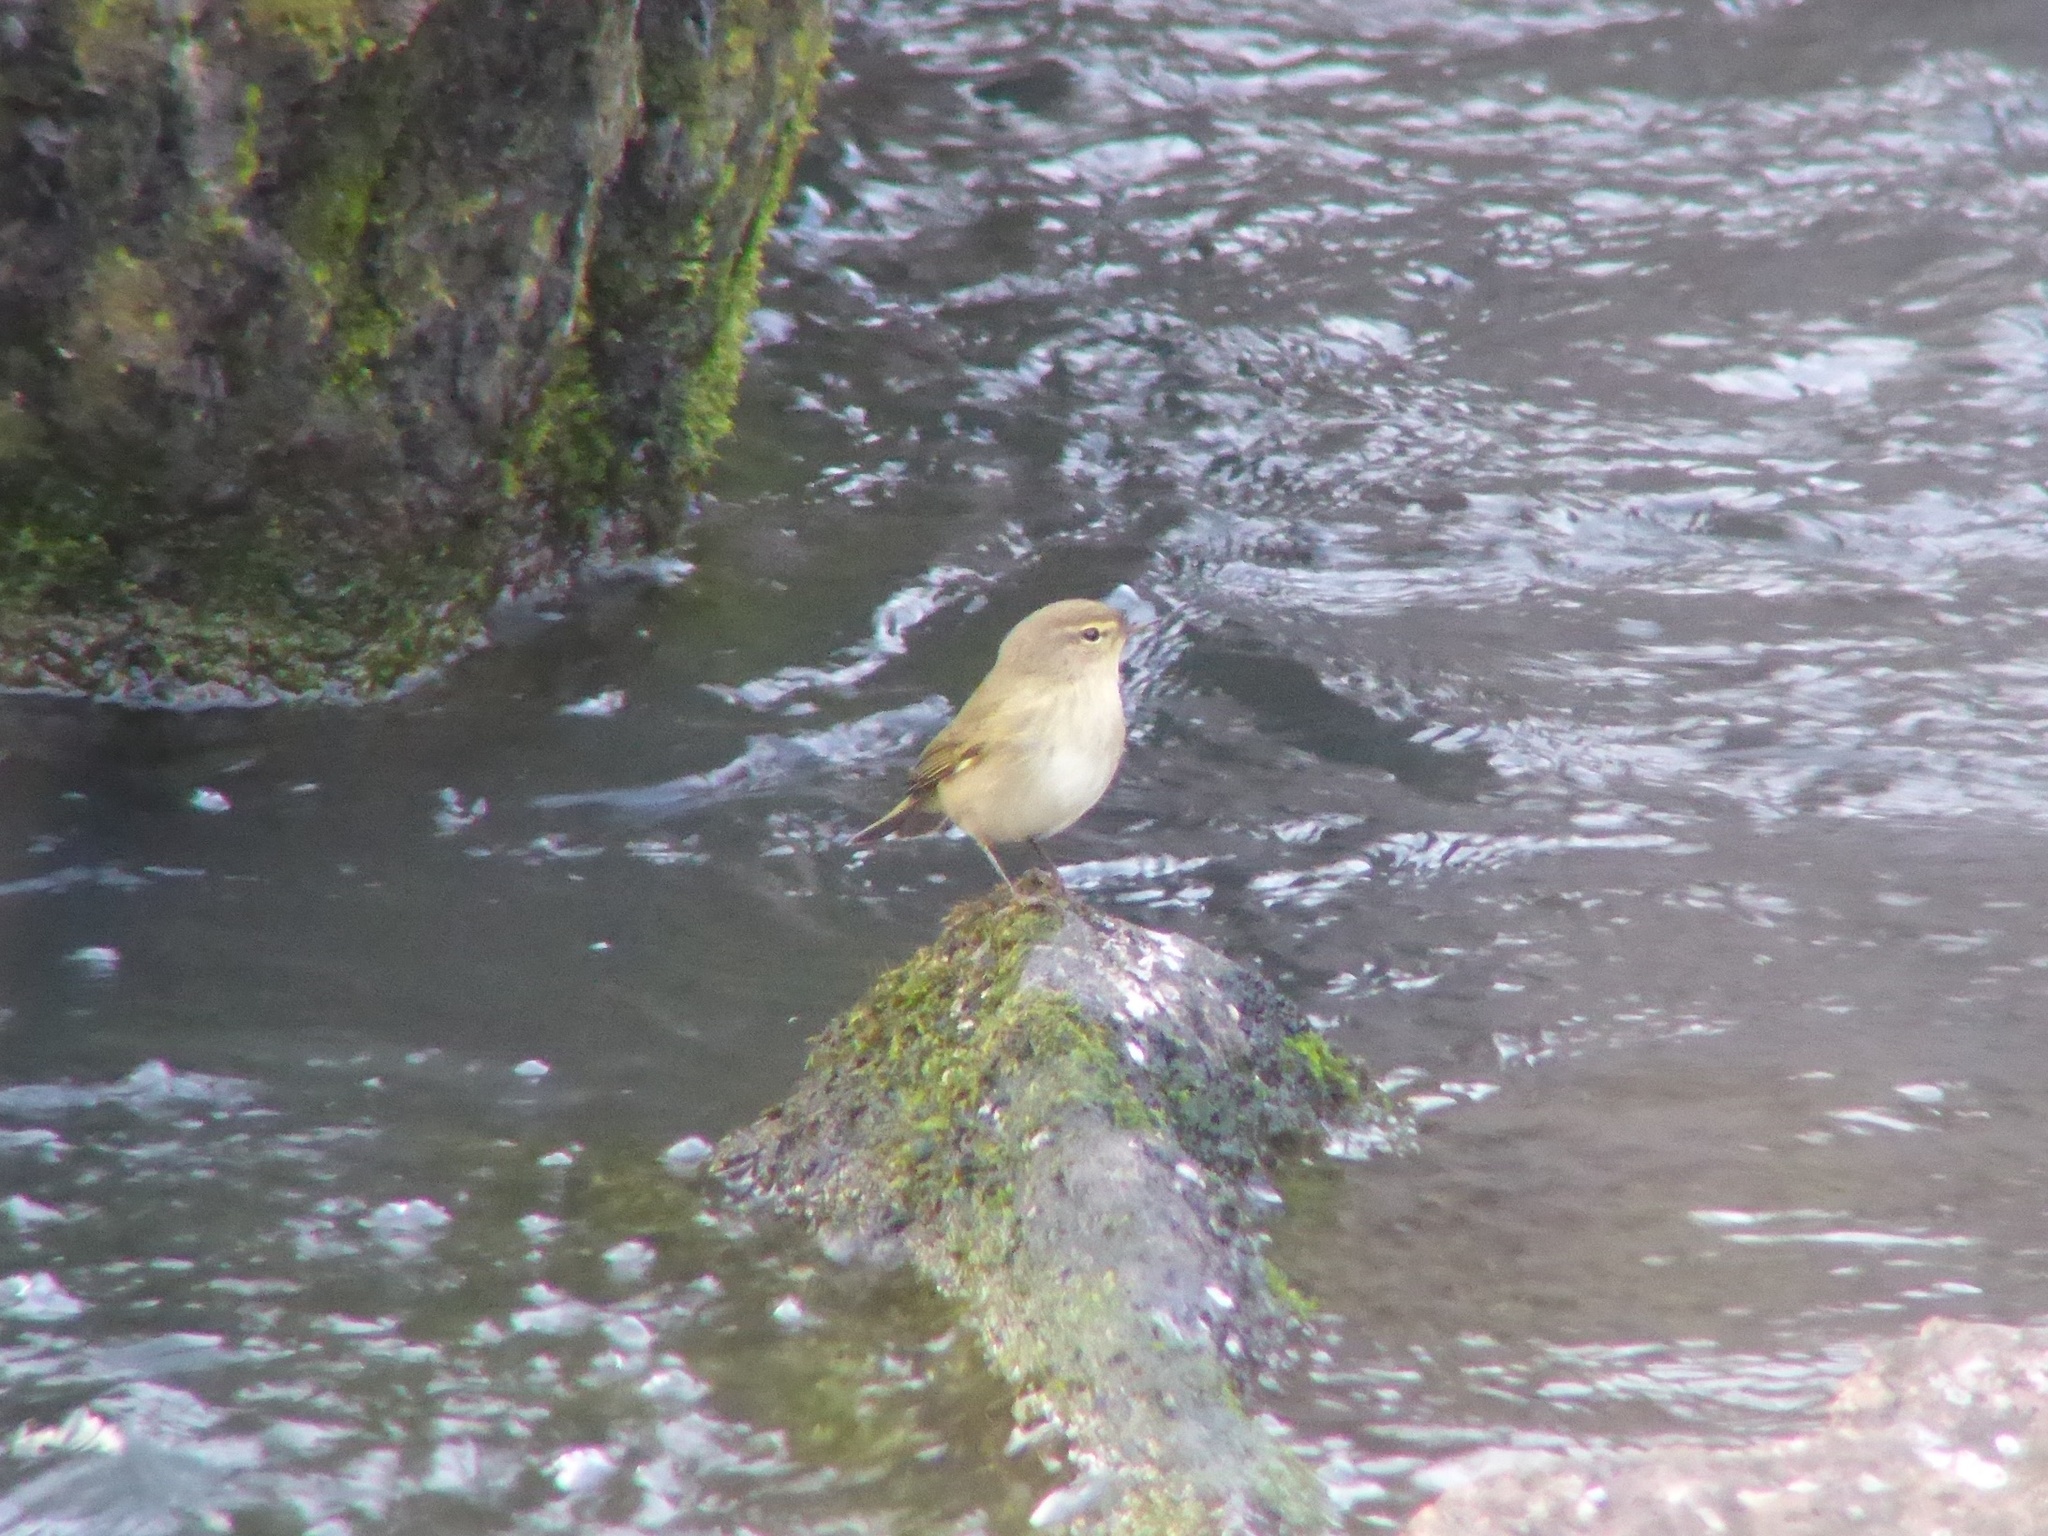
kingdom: Animalia
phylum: Chordata
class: Aves
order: Passeriformes
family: Phylloscopidae
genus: Phylloscopus
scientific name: Phylloscopus collybita
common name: Common chiffchaff
